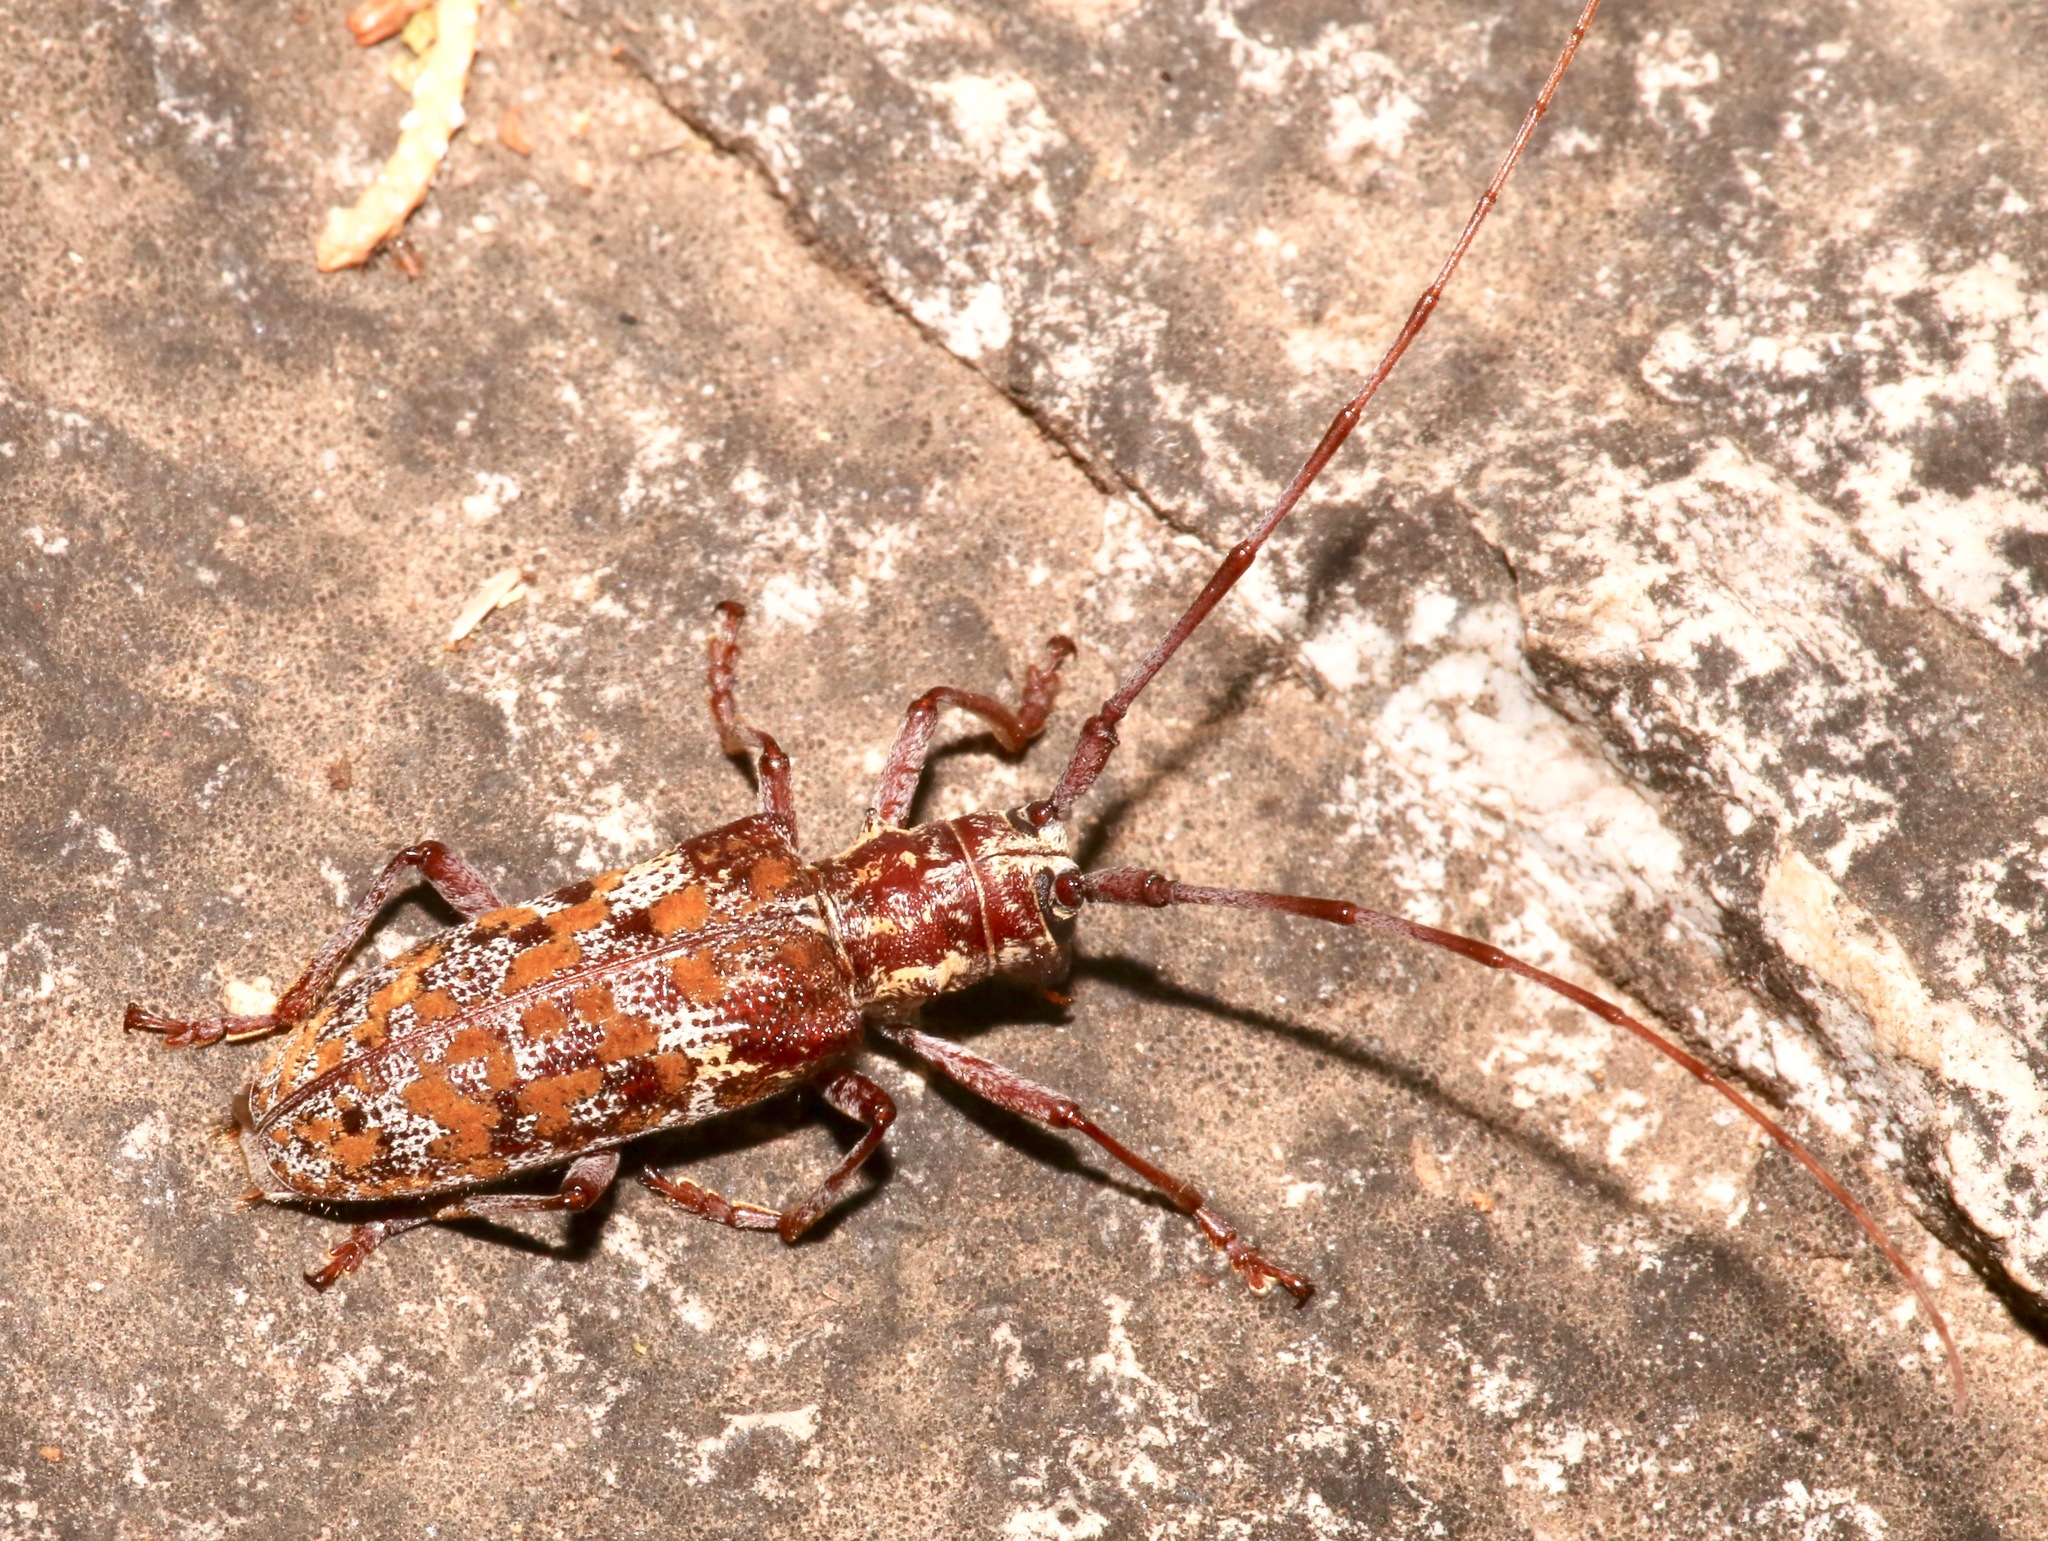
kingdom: Animalia
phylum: Arthropoda
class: Insecta
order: Coleoptera
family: Cerambycidae
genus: Monochamus
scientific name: Monochamus clamator
